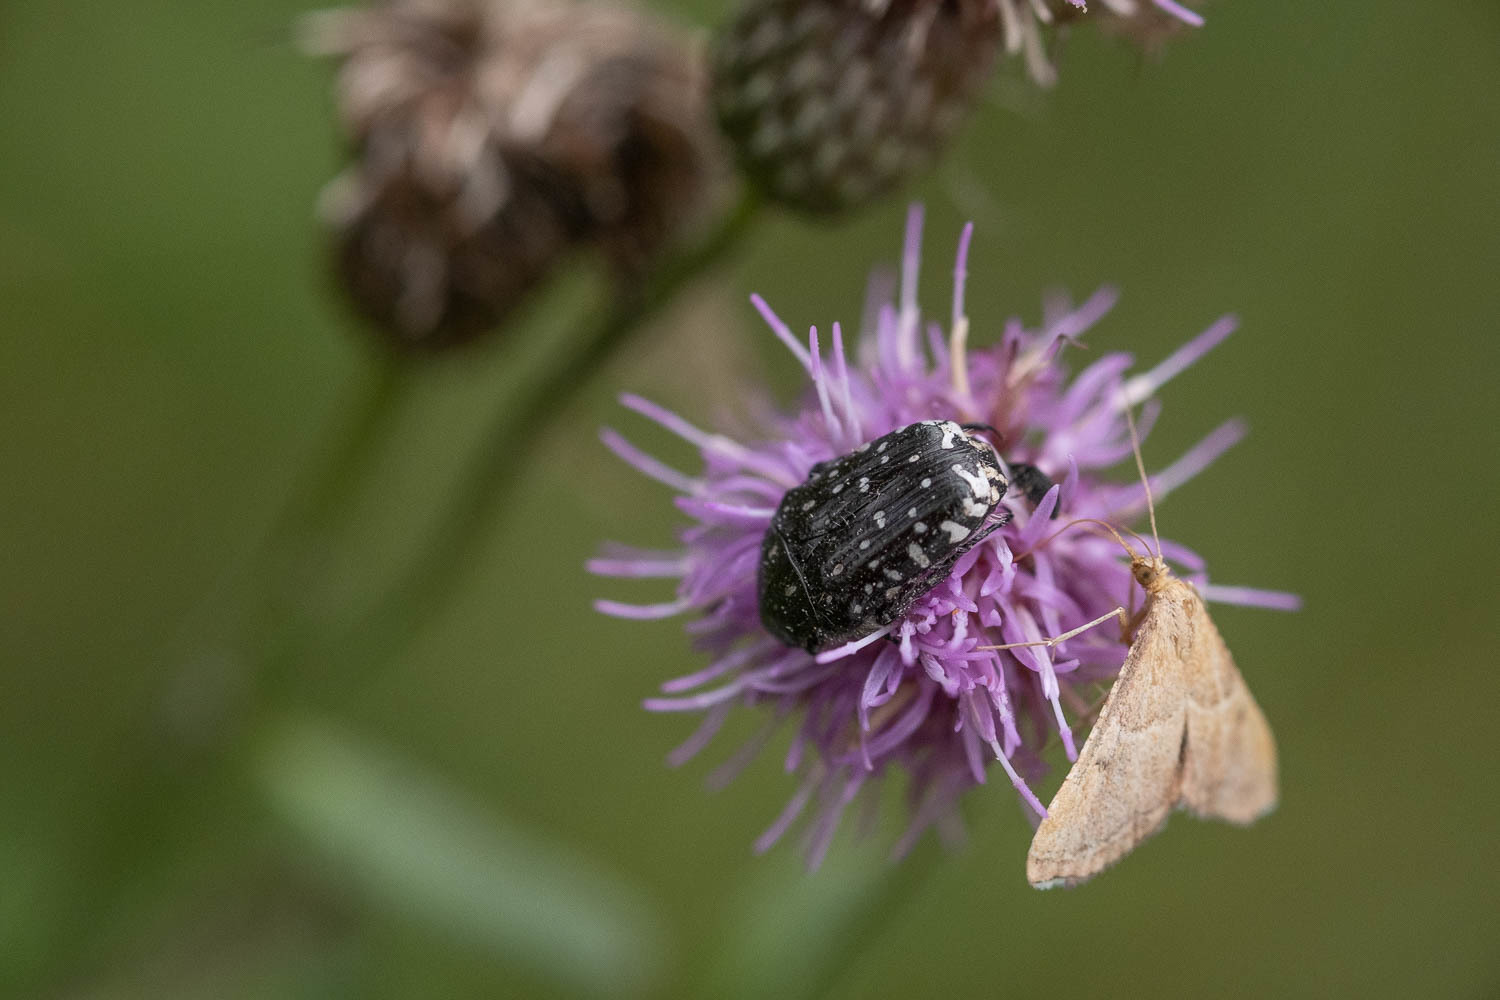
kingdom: Animalia
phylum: Arthropoda
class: Insecta
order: Coleoptera
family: Scarabaeidae
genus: Oxythyrea
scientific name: Oxythyrea funesta
